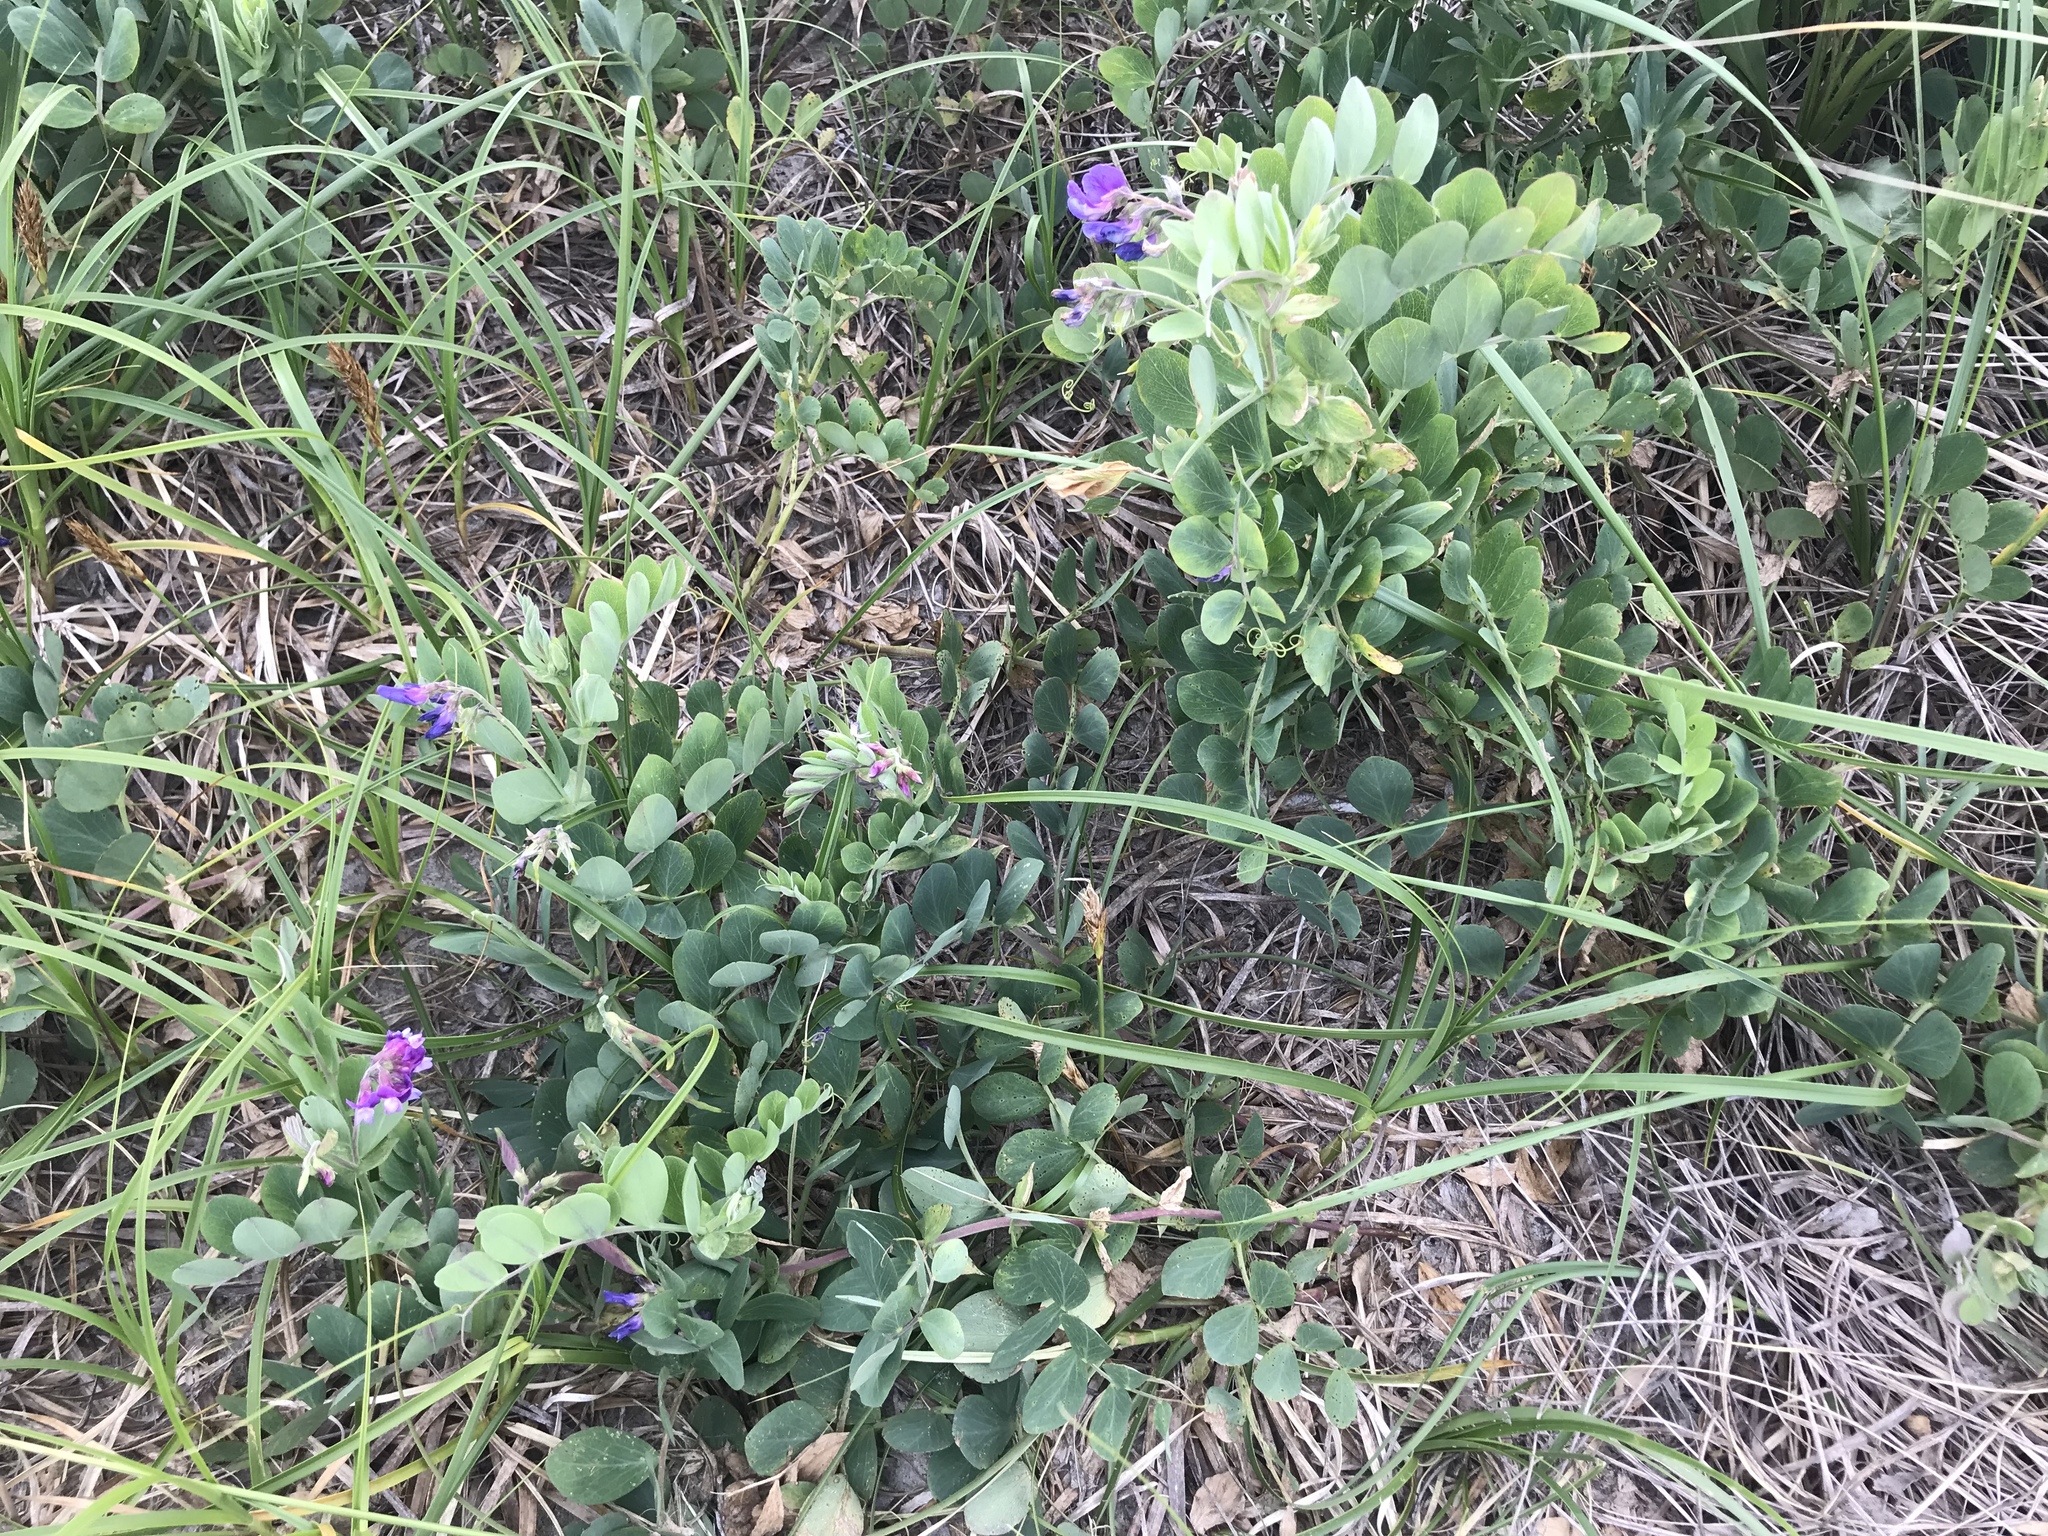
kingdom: Plantae
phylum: Tracheophyta
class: Magnoliopsida
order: Fabales
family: Fabaceae
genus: Lathyrus
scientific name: Lathyrus japonicus
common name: Sea pea
